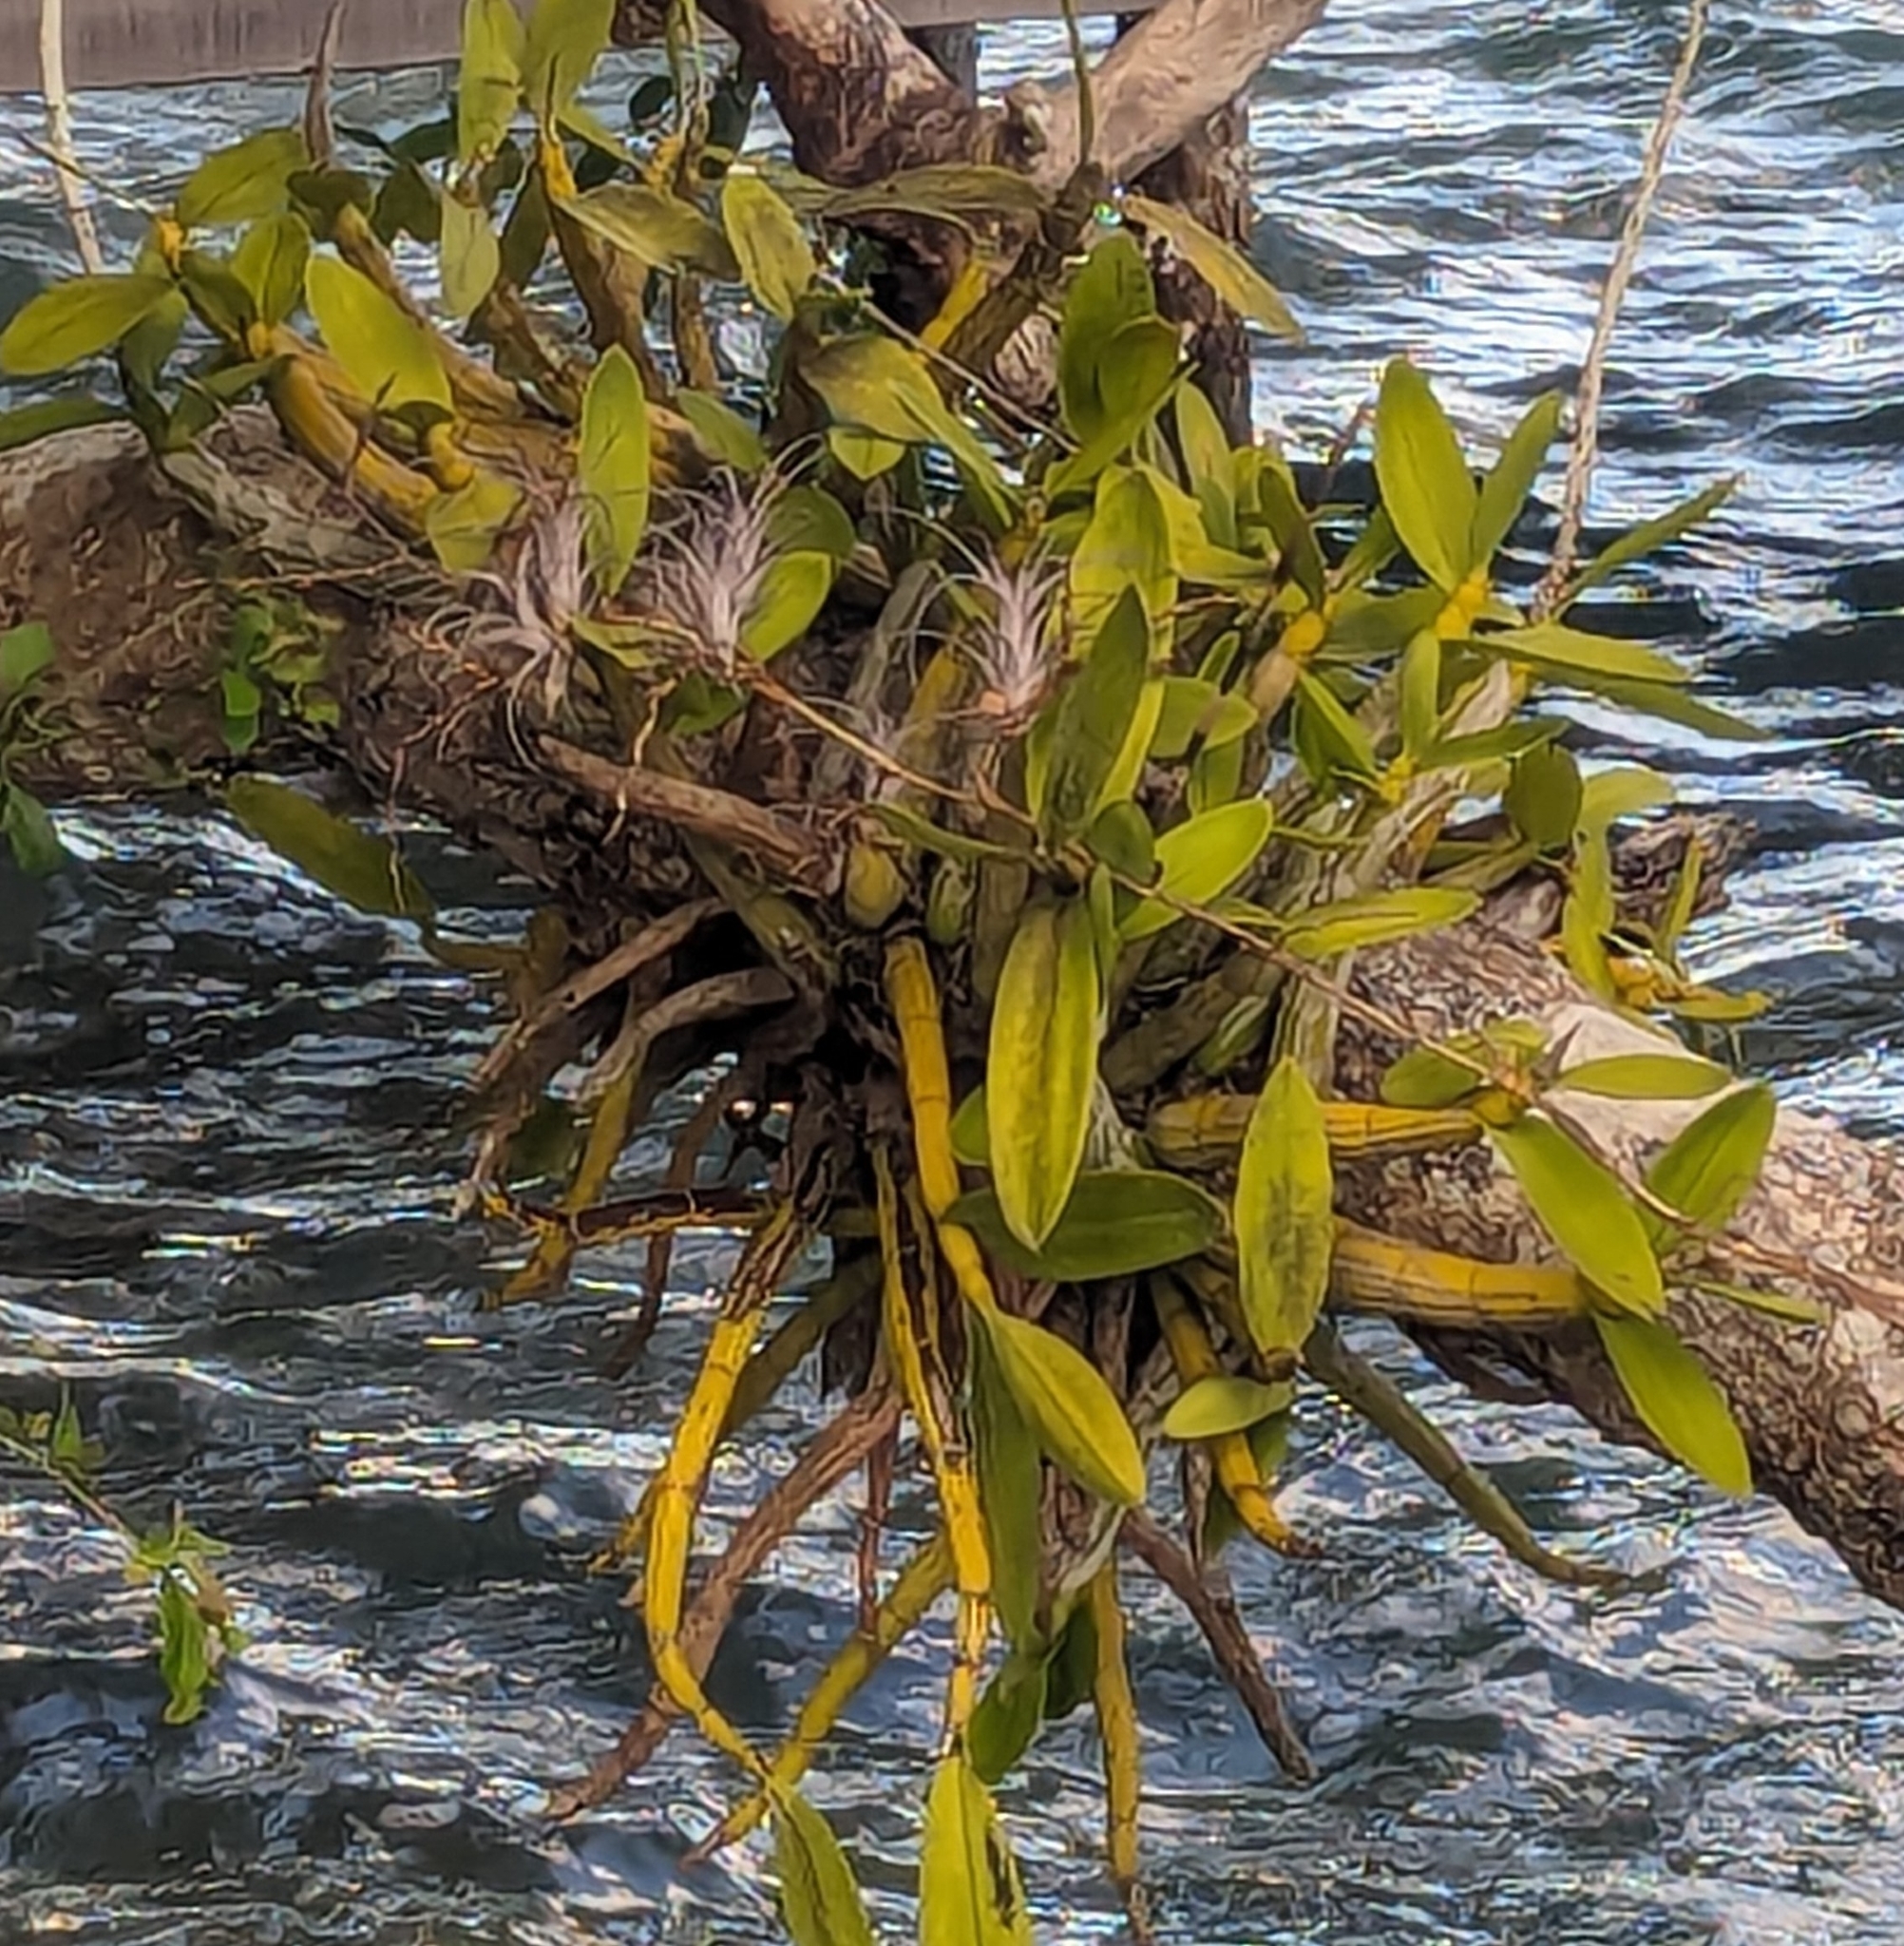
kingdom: Plantae
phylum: Tracheophyta
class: Liliopsida
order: Asparagales
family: Orchidaceae
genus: Myrmecophila
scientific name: Myrmecophila christinae
